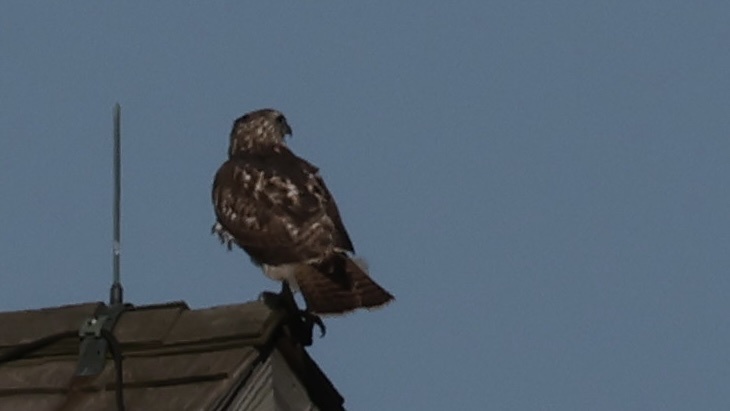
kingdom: Animalia
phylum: Chordata
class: Aves
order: Accipitriformes
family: Accipitridae
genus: Buteo
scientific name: Buteo jamaicensis
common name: Red-tailed hawk
